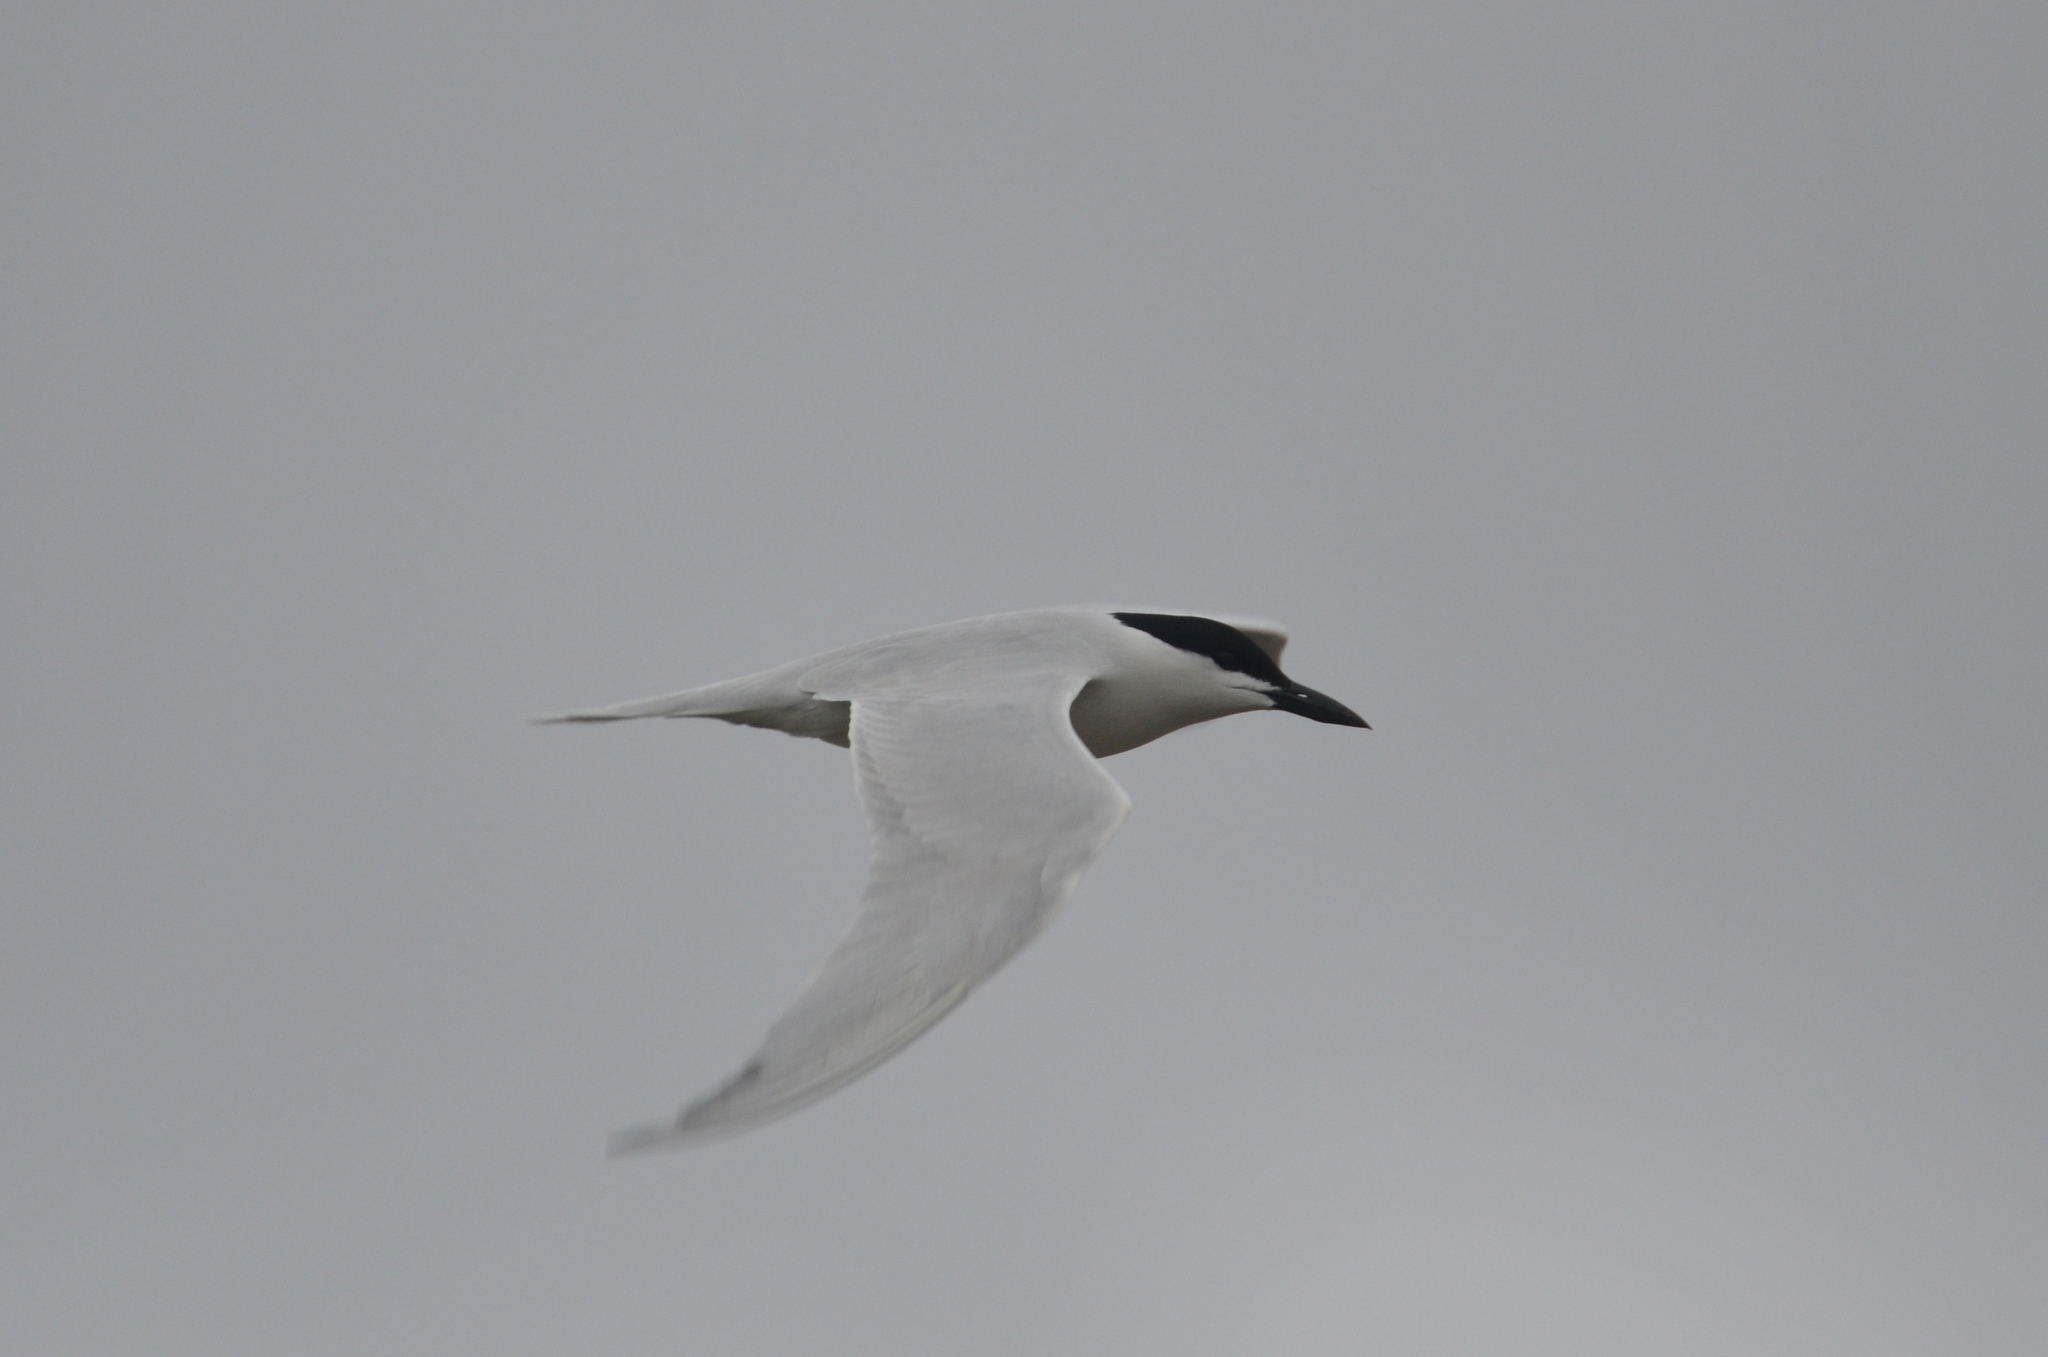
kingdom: Animalia
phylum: Chordata
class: Aves
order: Charadriiformes
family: Laridae
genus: Gelochelidon
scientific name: Gelochelidon nilotica
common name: Gull-billed tern
